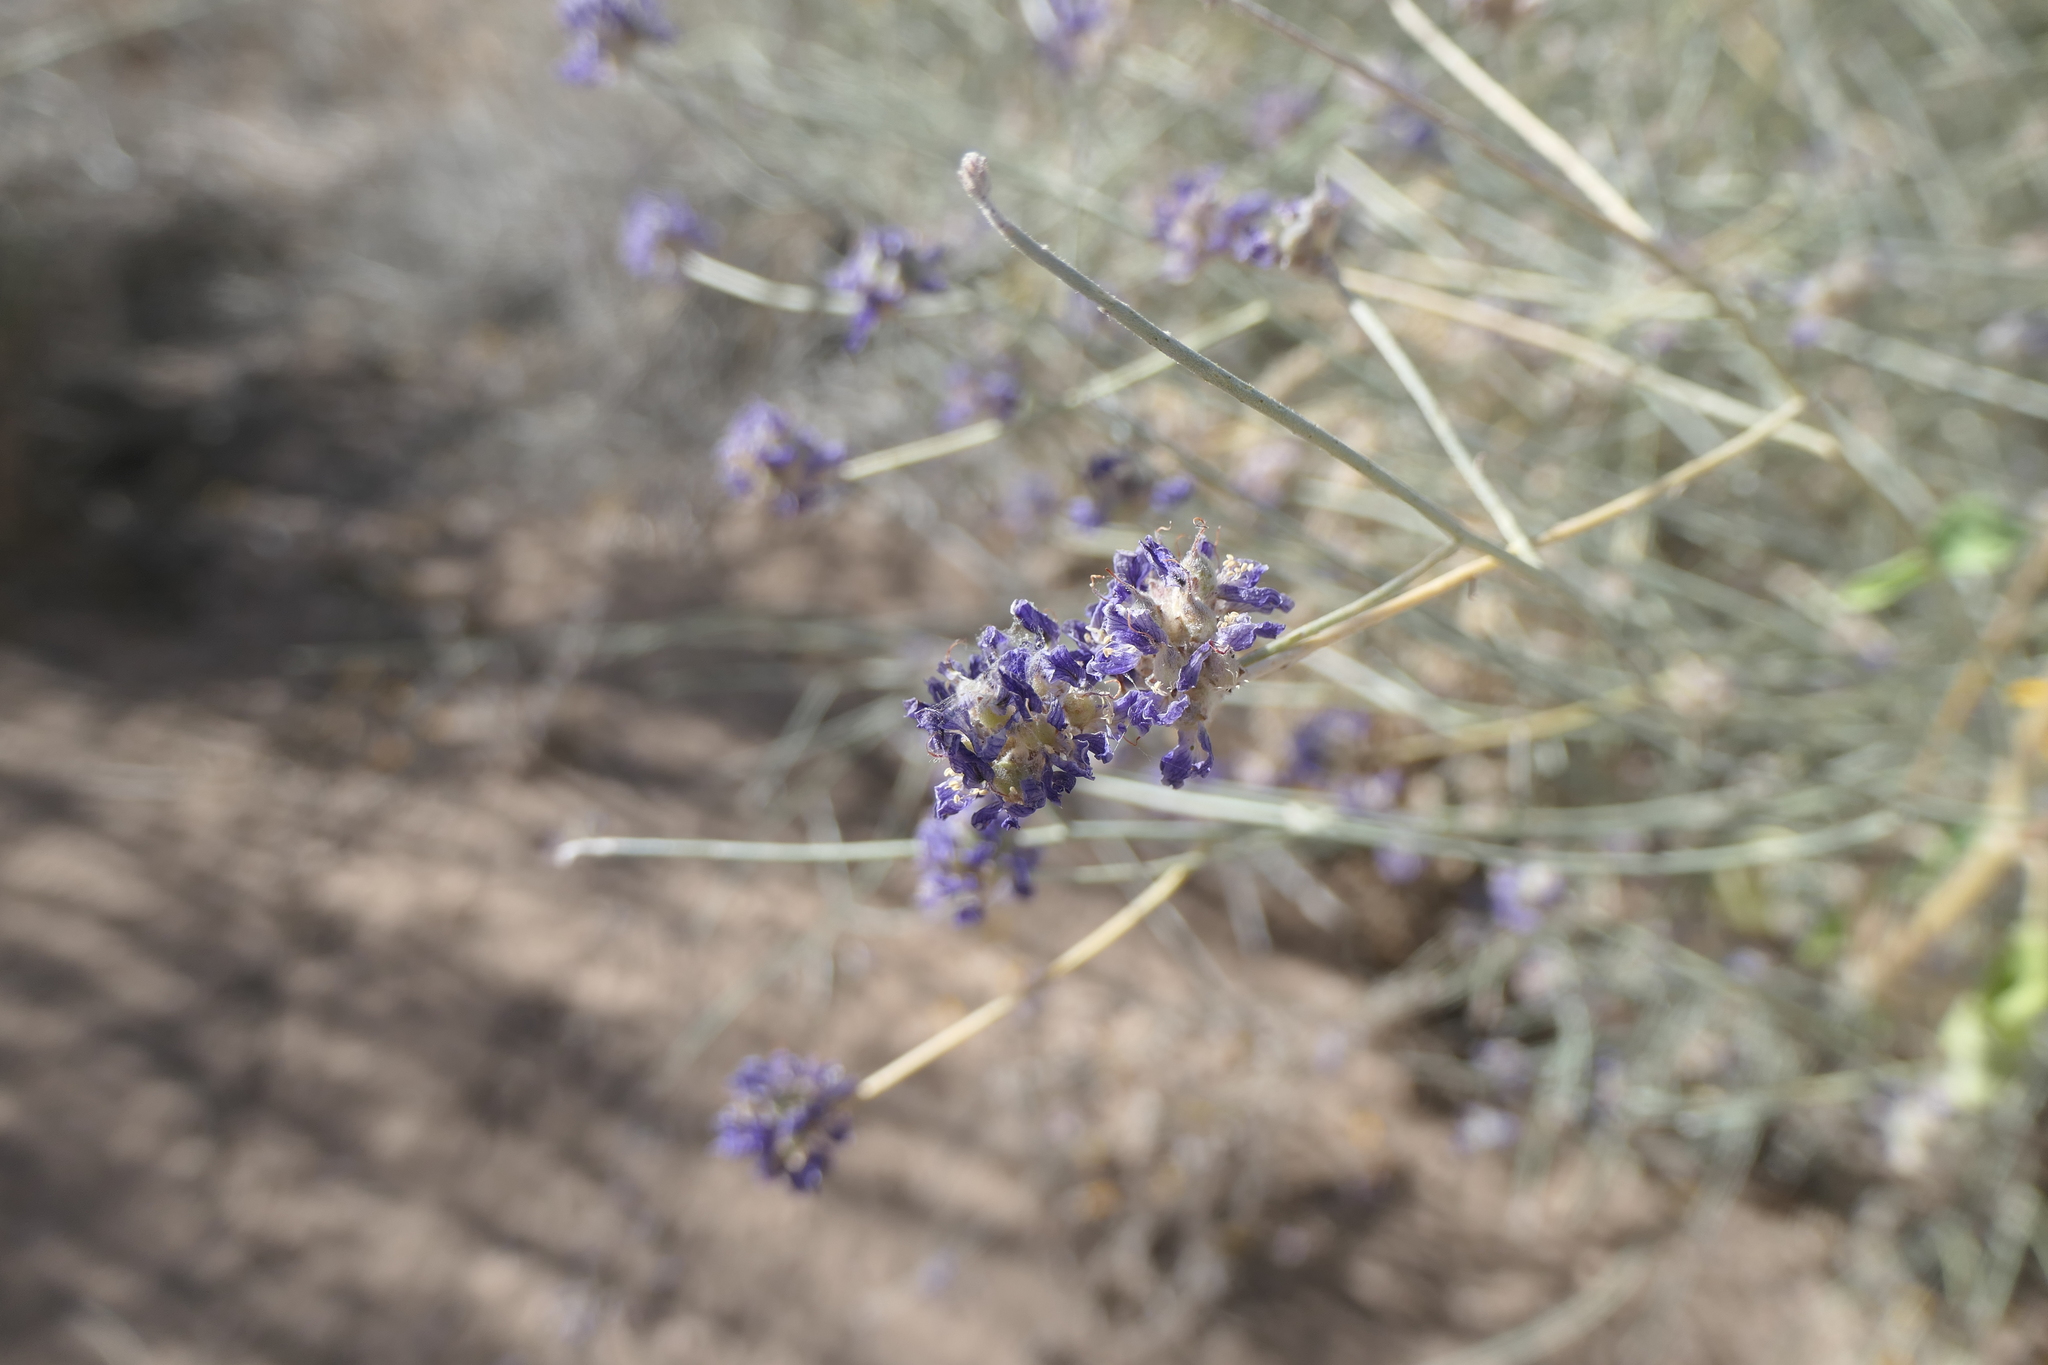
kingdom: Plantae
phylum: Tracheophyta
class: Magnoliopsida
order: Fabales
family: Fabaceae
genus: Psorothamnus
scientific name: Psorothamnus scoparius
